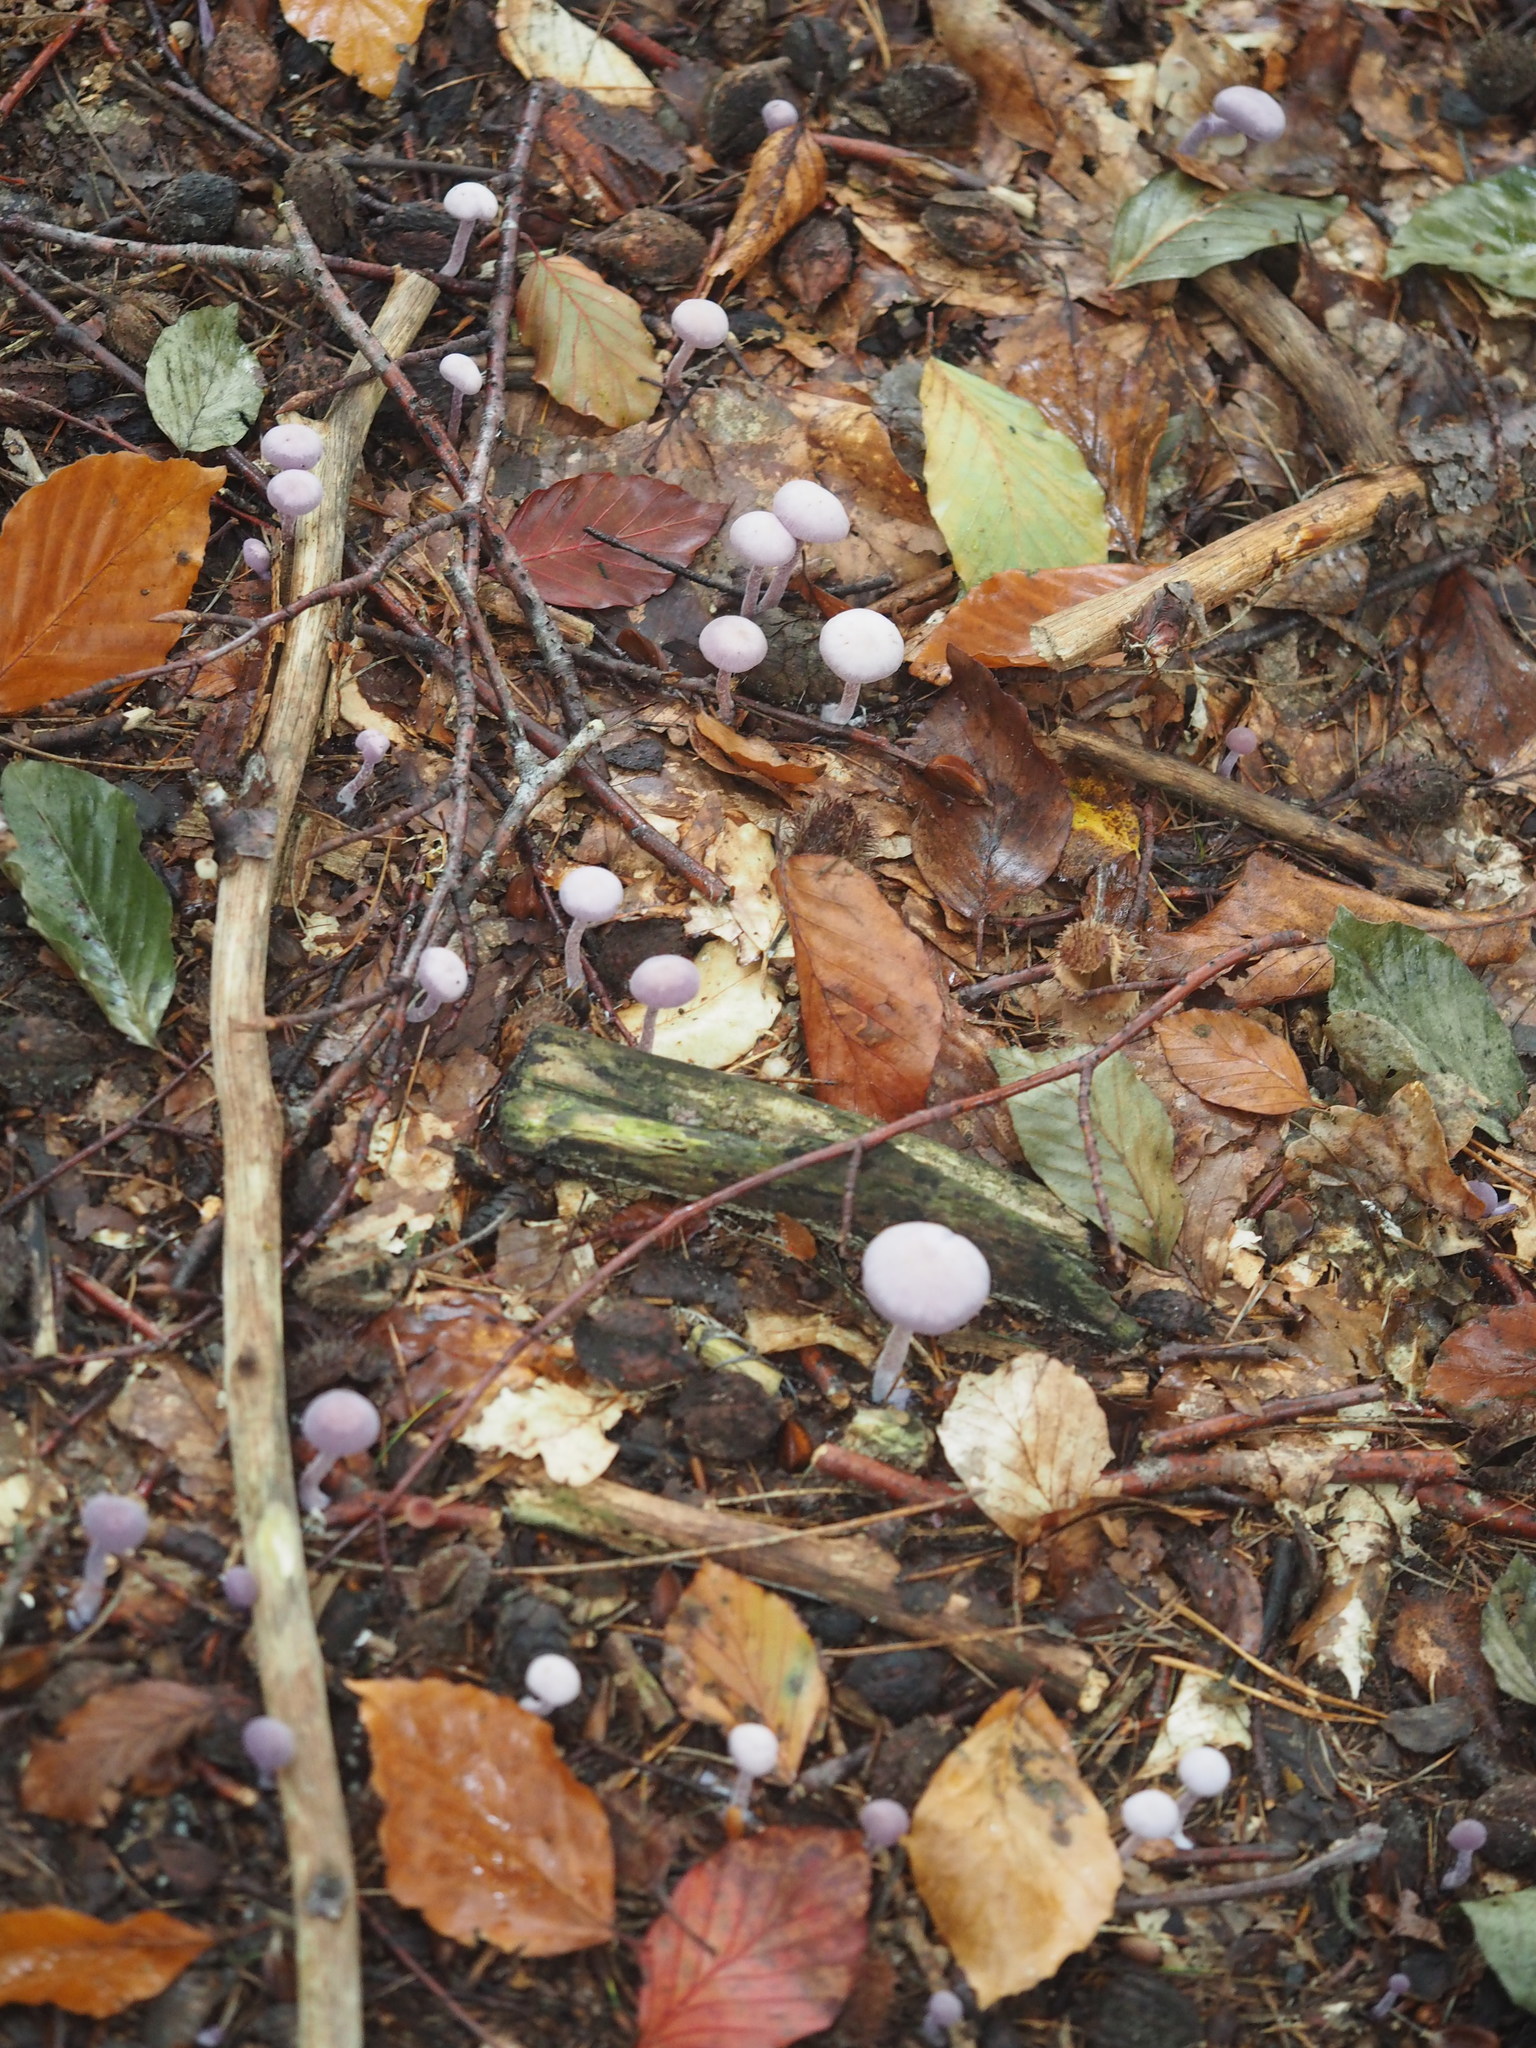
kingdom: Fungi
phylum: Basidiomycota
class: Agaricomycetes
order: Agaricales
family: Hydnangiaceae
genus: Laccaria
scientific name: Laccaria amethystina
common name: Amethyst deceiver
